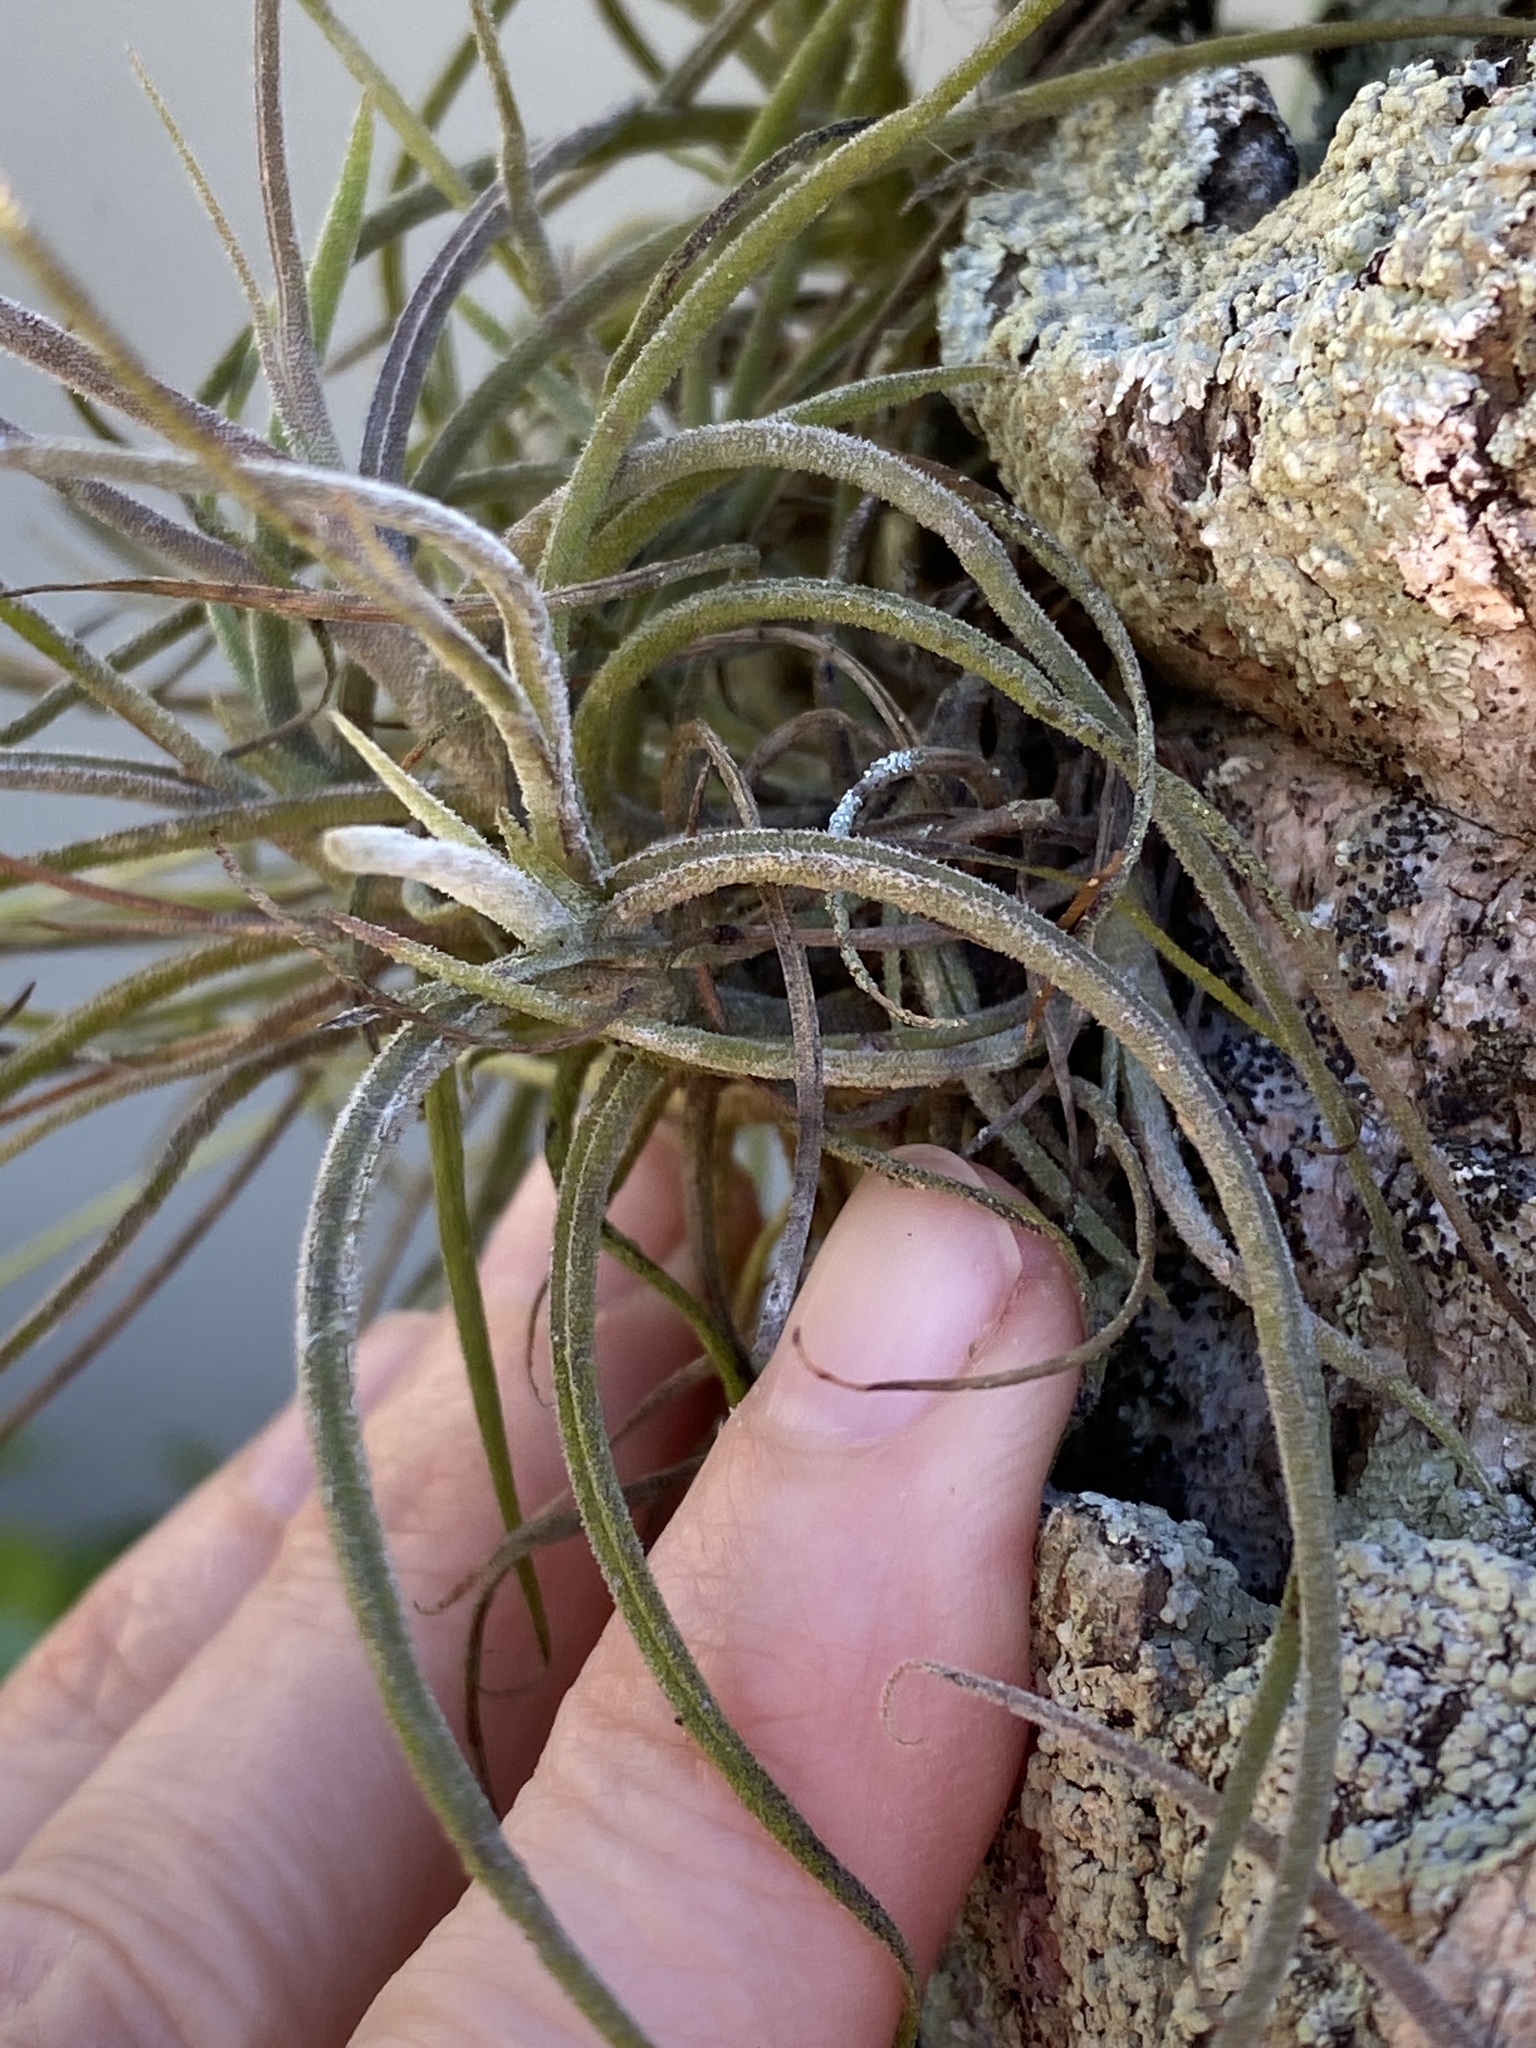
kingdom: Plantae
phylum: Tracheophyta
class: Liliopsida
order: Poales
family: Bromeliaceae
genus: Tillandsia
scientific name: Tillandsia recurvata
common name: Small ballmoss
